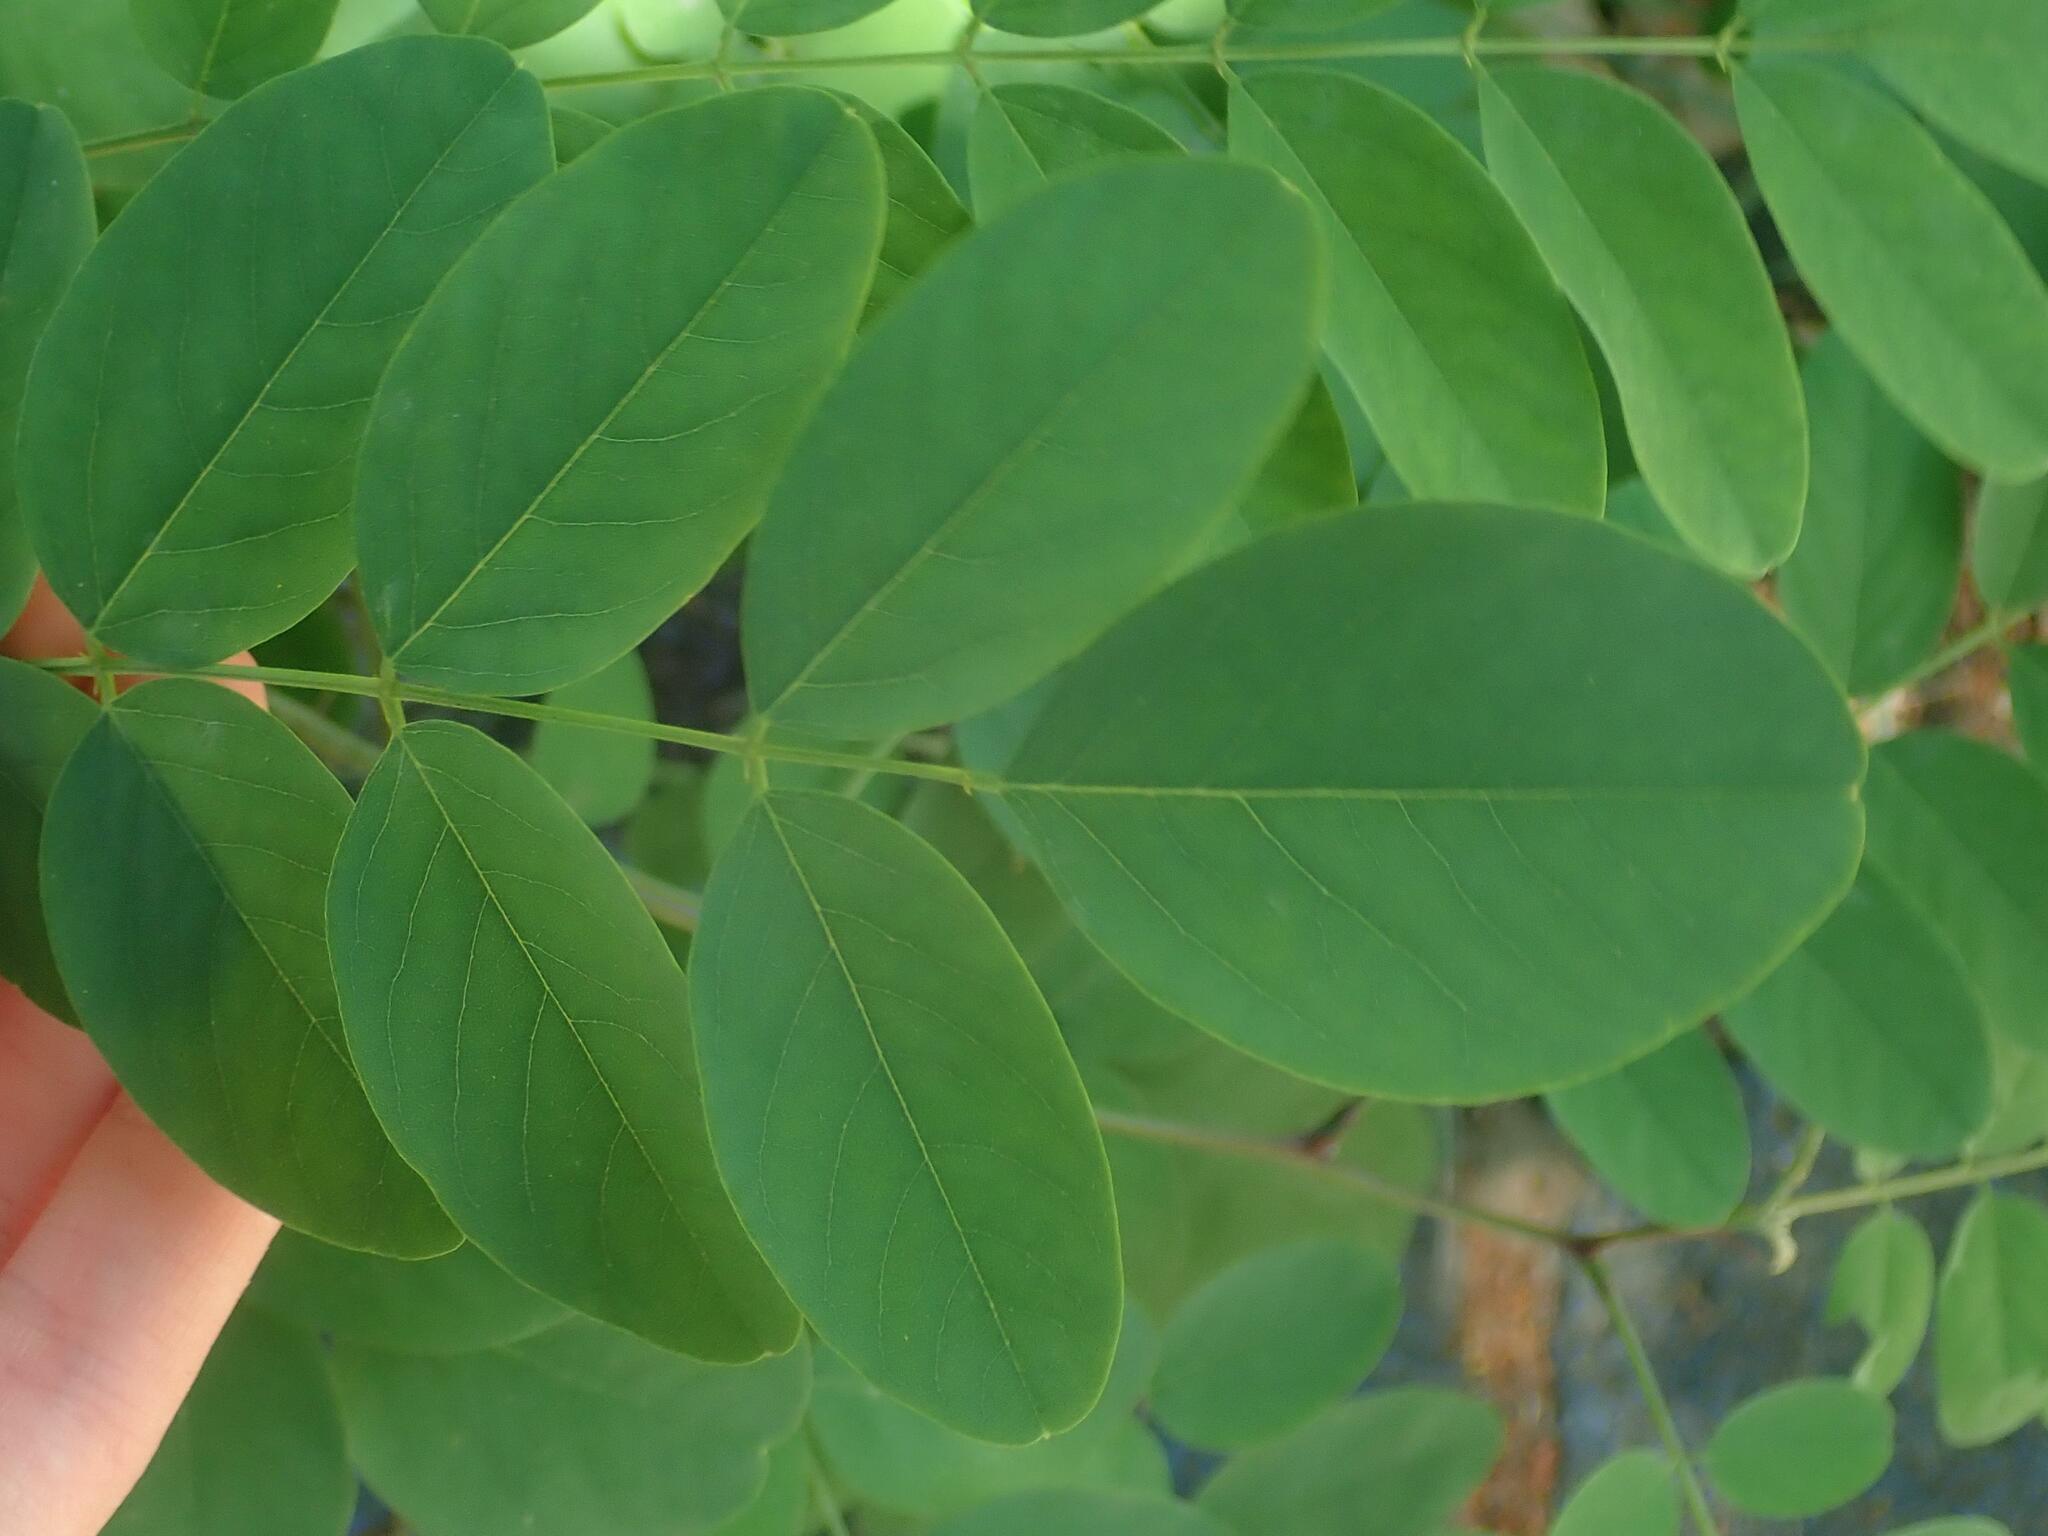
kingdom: Plantae
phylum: Tracheophyta
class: Magnoliopsida
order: Fabales
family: Fabaceae
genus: Robinia
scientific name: Robinia pseudoacacia
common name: Black locust
